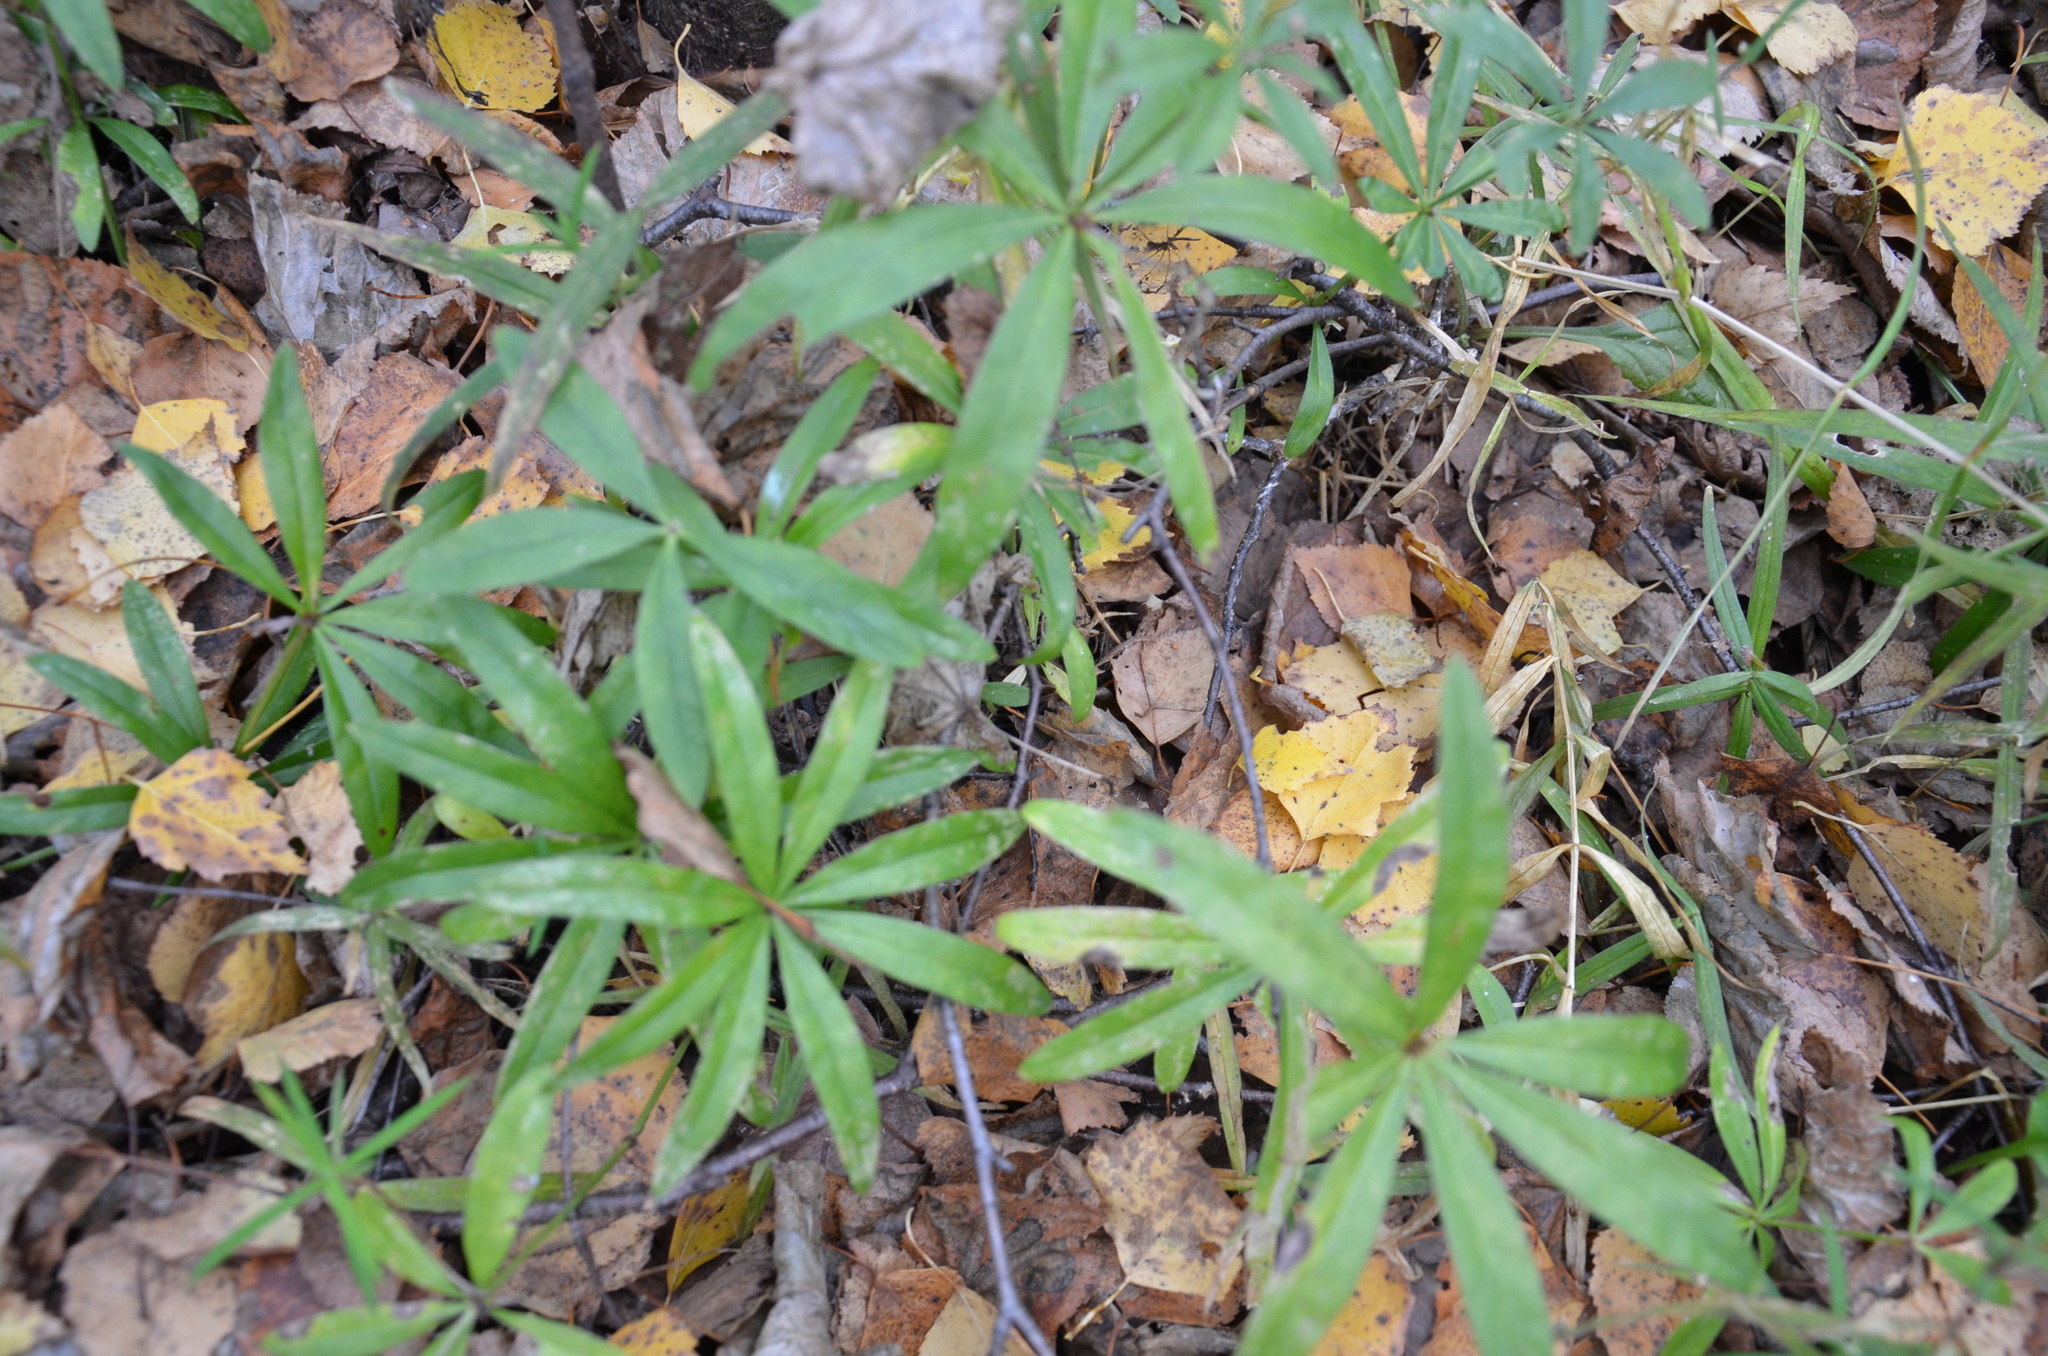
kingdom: Plantae
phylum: Tracheophyta
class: Magnoliopsida
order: Gentianales
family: Rubiaceae
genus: Galium
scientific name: Galium odoratum
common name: Sweet woodruff
